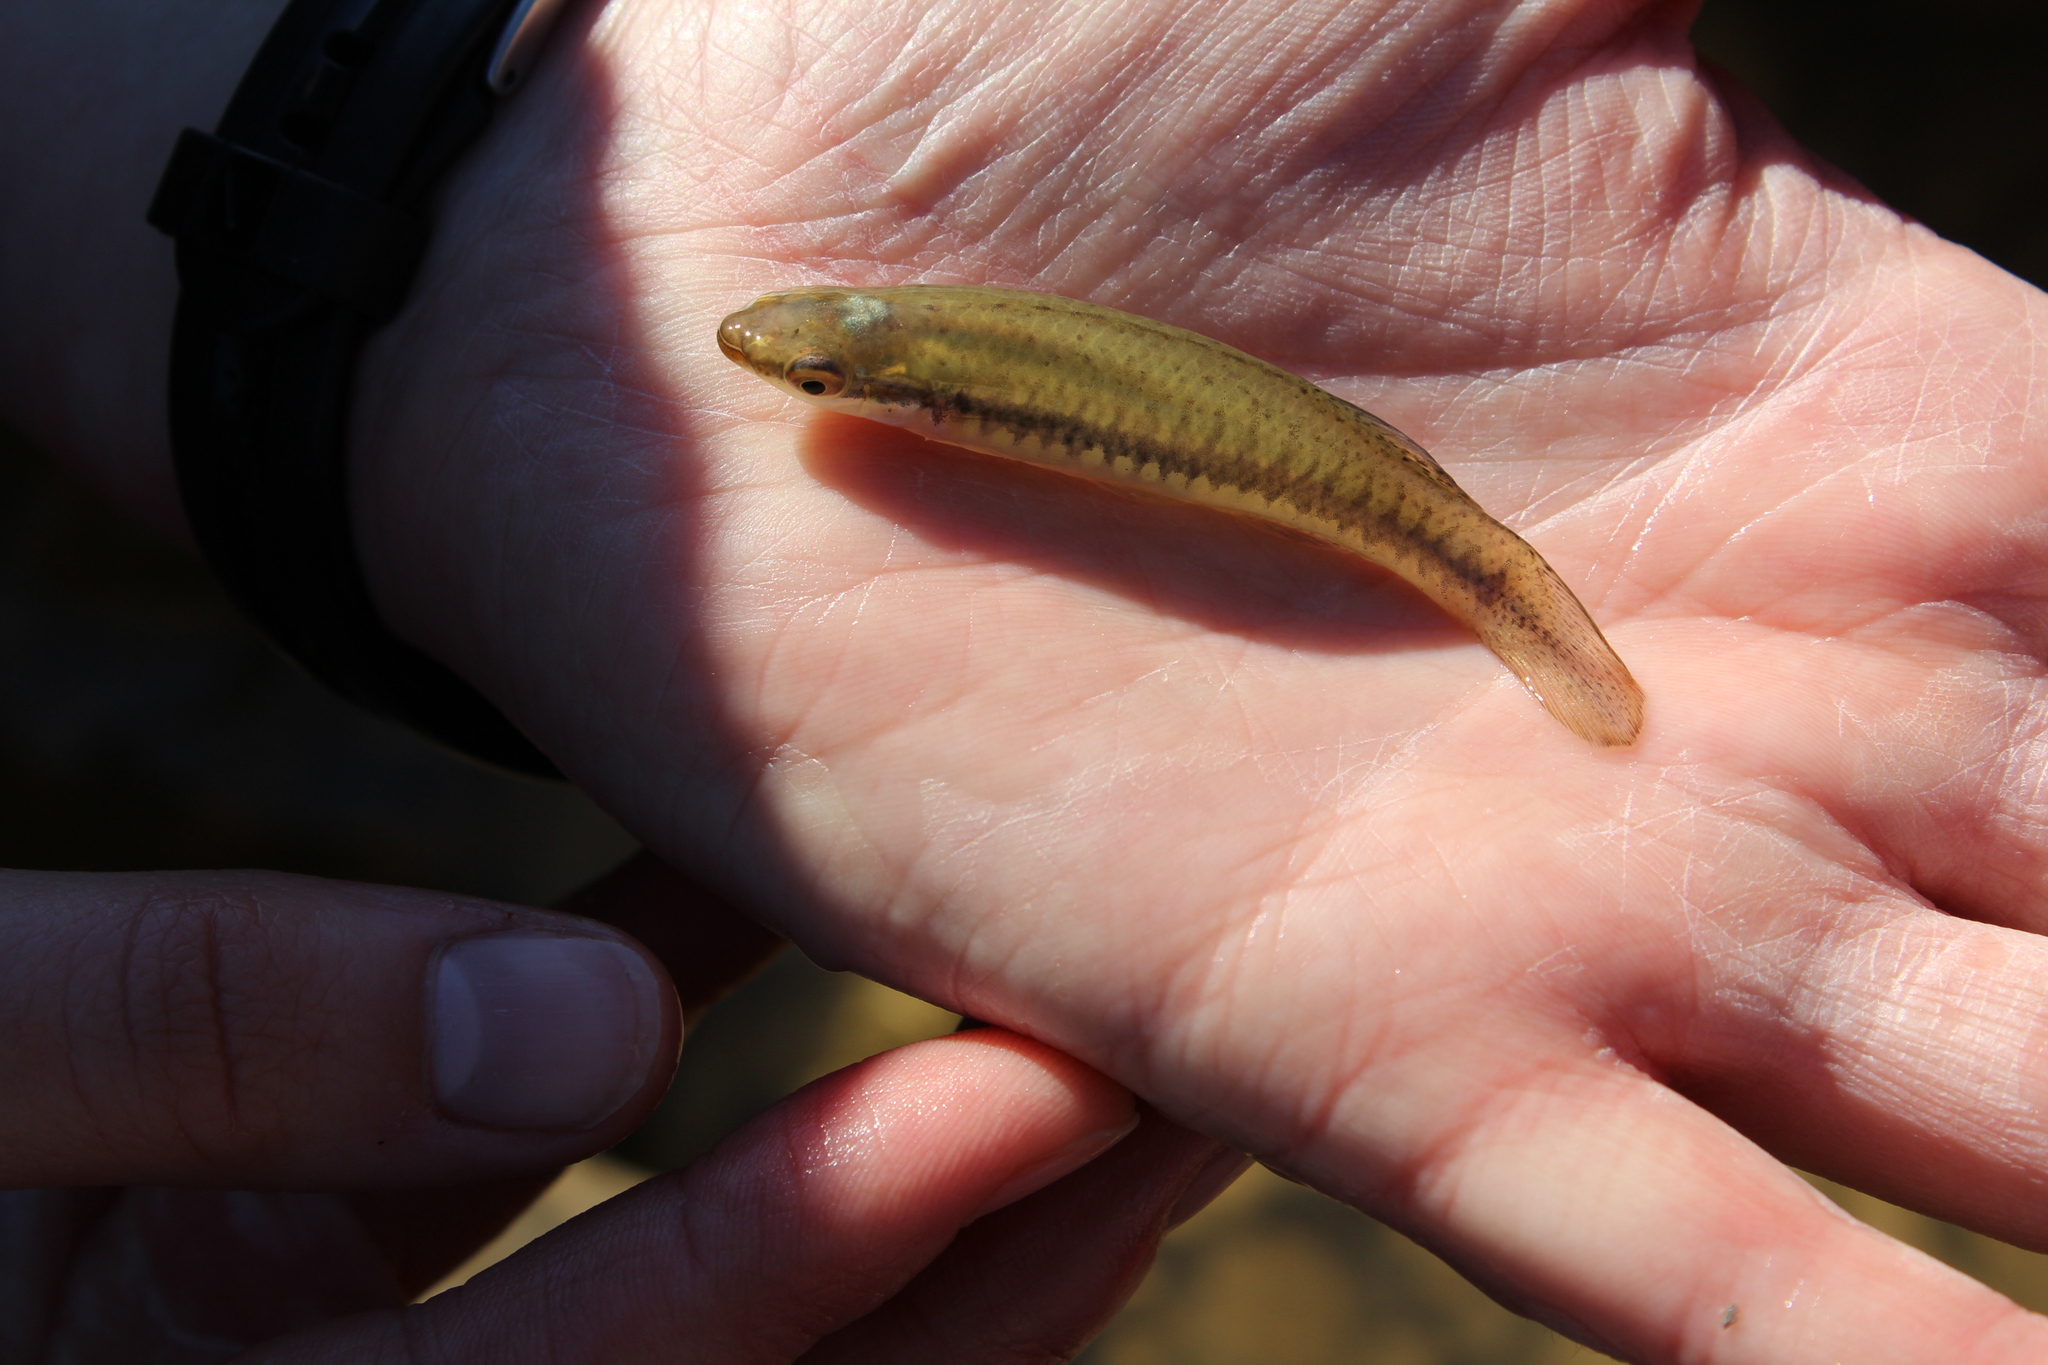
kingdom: Animalia
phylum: Chordata
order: Cyprinodontiformes
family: Fundulidae
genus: Fundulus
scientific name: Fundulus notatus
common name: Blackstripe topminnow
